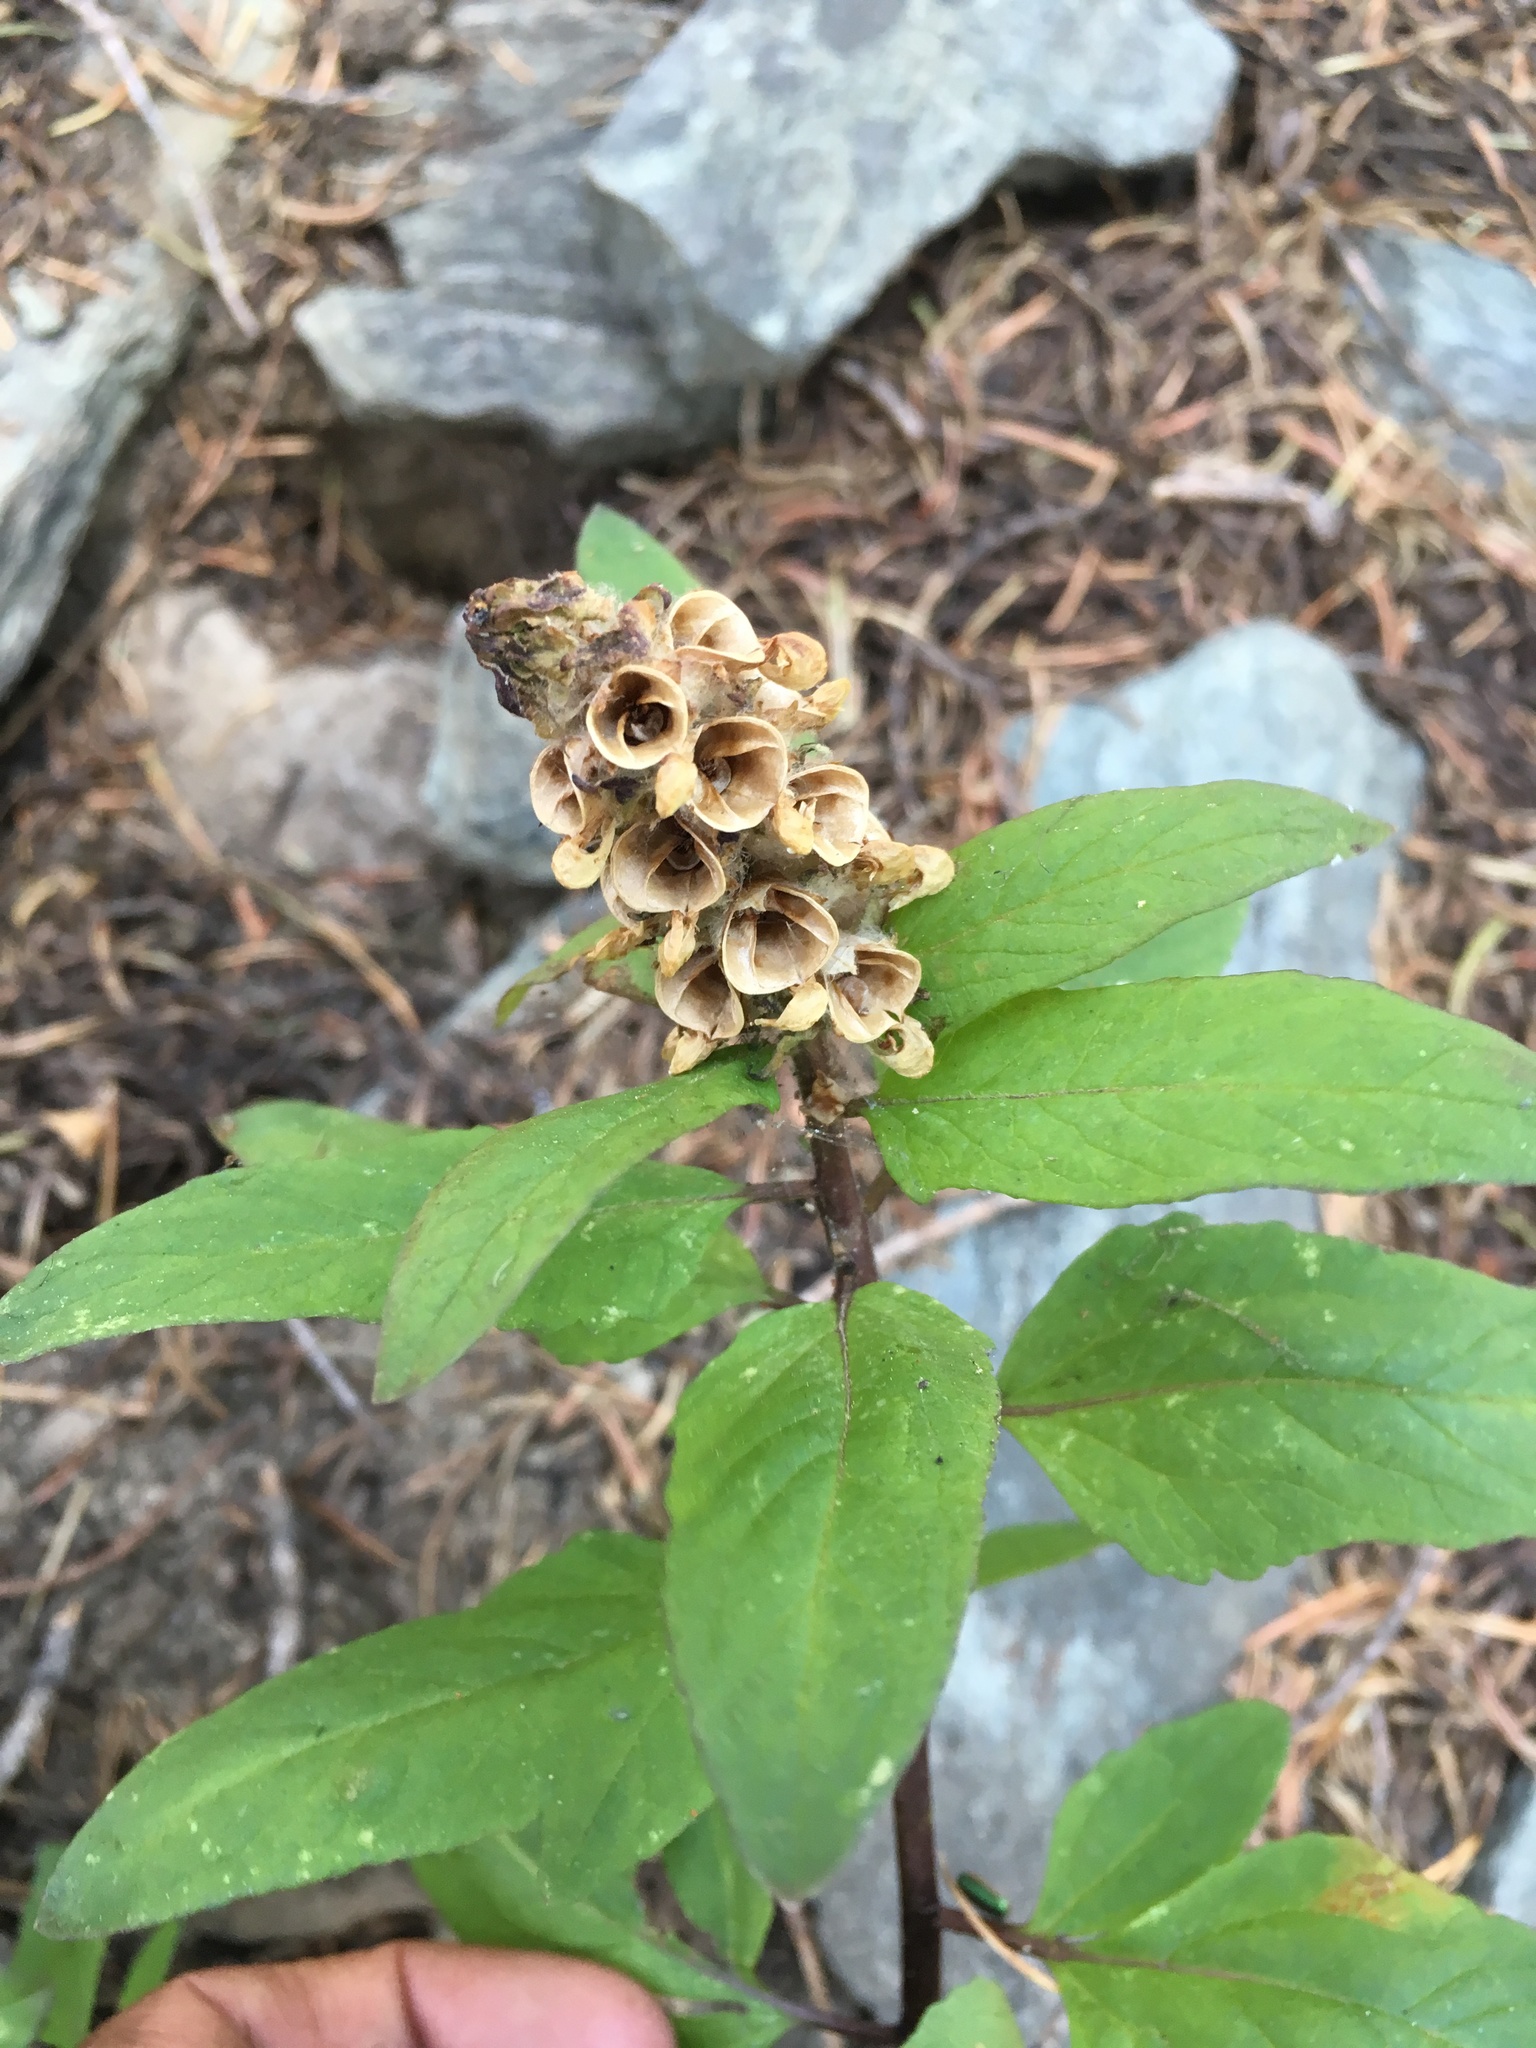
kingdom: Plantae
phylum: Tracheophyta
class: Magnoliopsida
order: Lamiales
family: Orobanchaceae
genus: Pedicularis
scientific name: Pedicularis howellii
